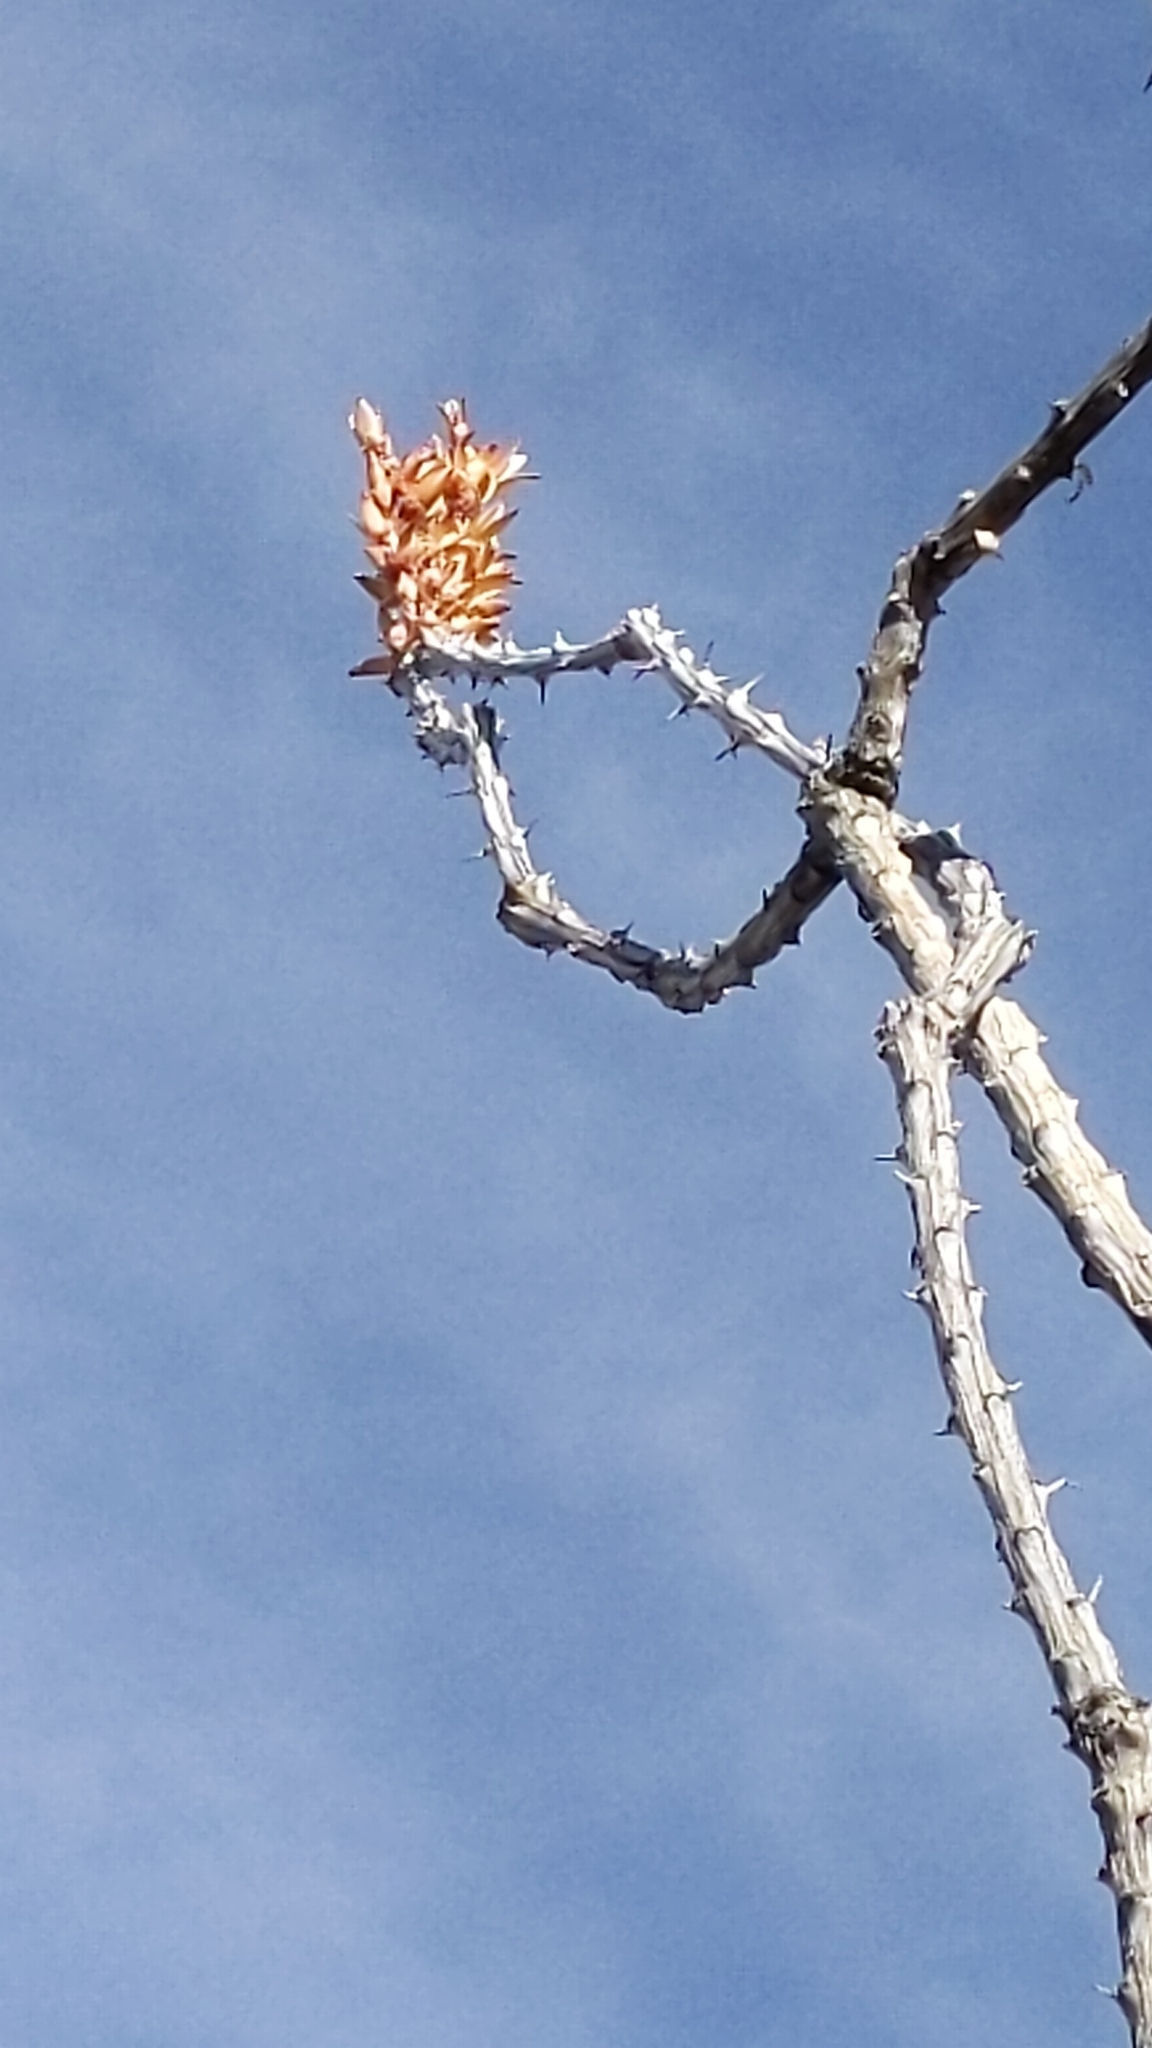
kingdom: Plantae
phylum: Tracheophyta
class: Magnoliopsida
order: Ericales
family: Fouquieriaceae
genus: Fouquieria
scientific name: Fouquieria splendens
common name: Vine-cactus
